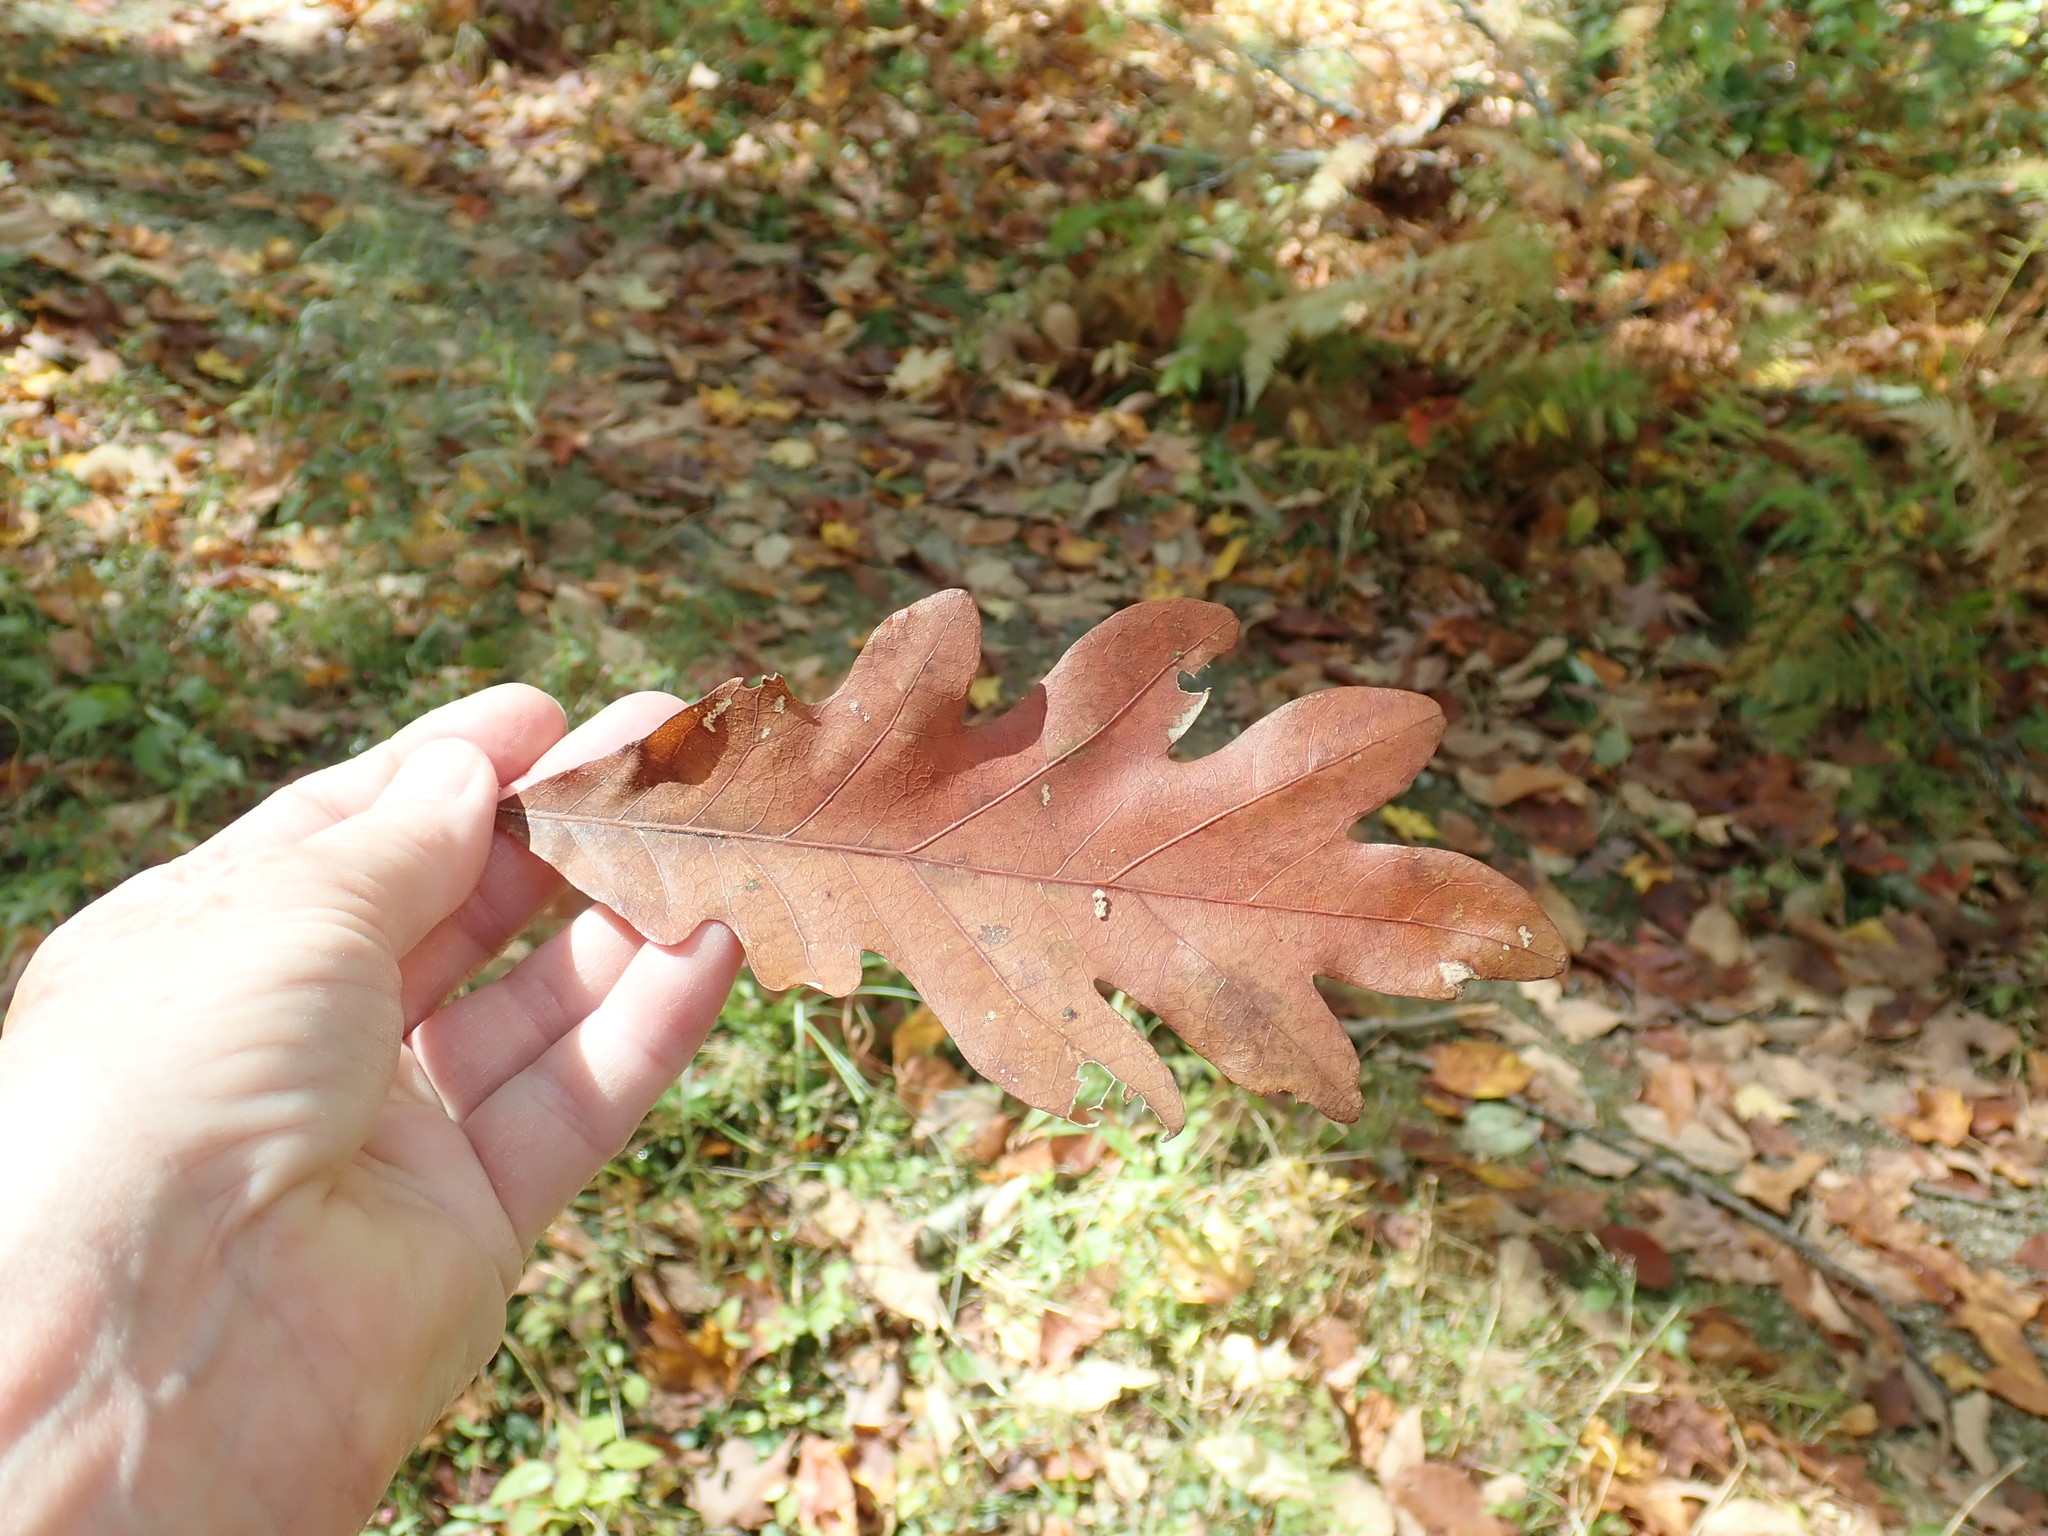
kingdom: Plantae
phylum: Tracheophyta
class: Magnoliopsida
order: Fagales
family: Fagaceae
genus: Quercus
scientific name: Quercus alba
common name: White oak
